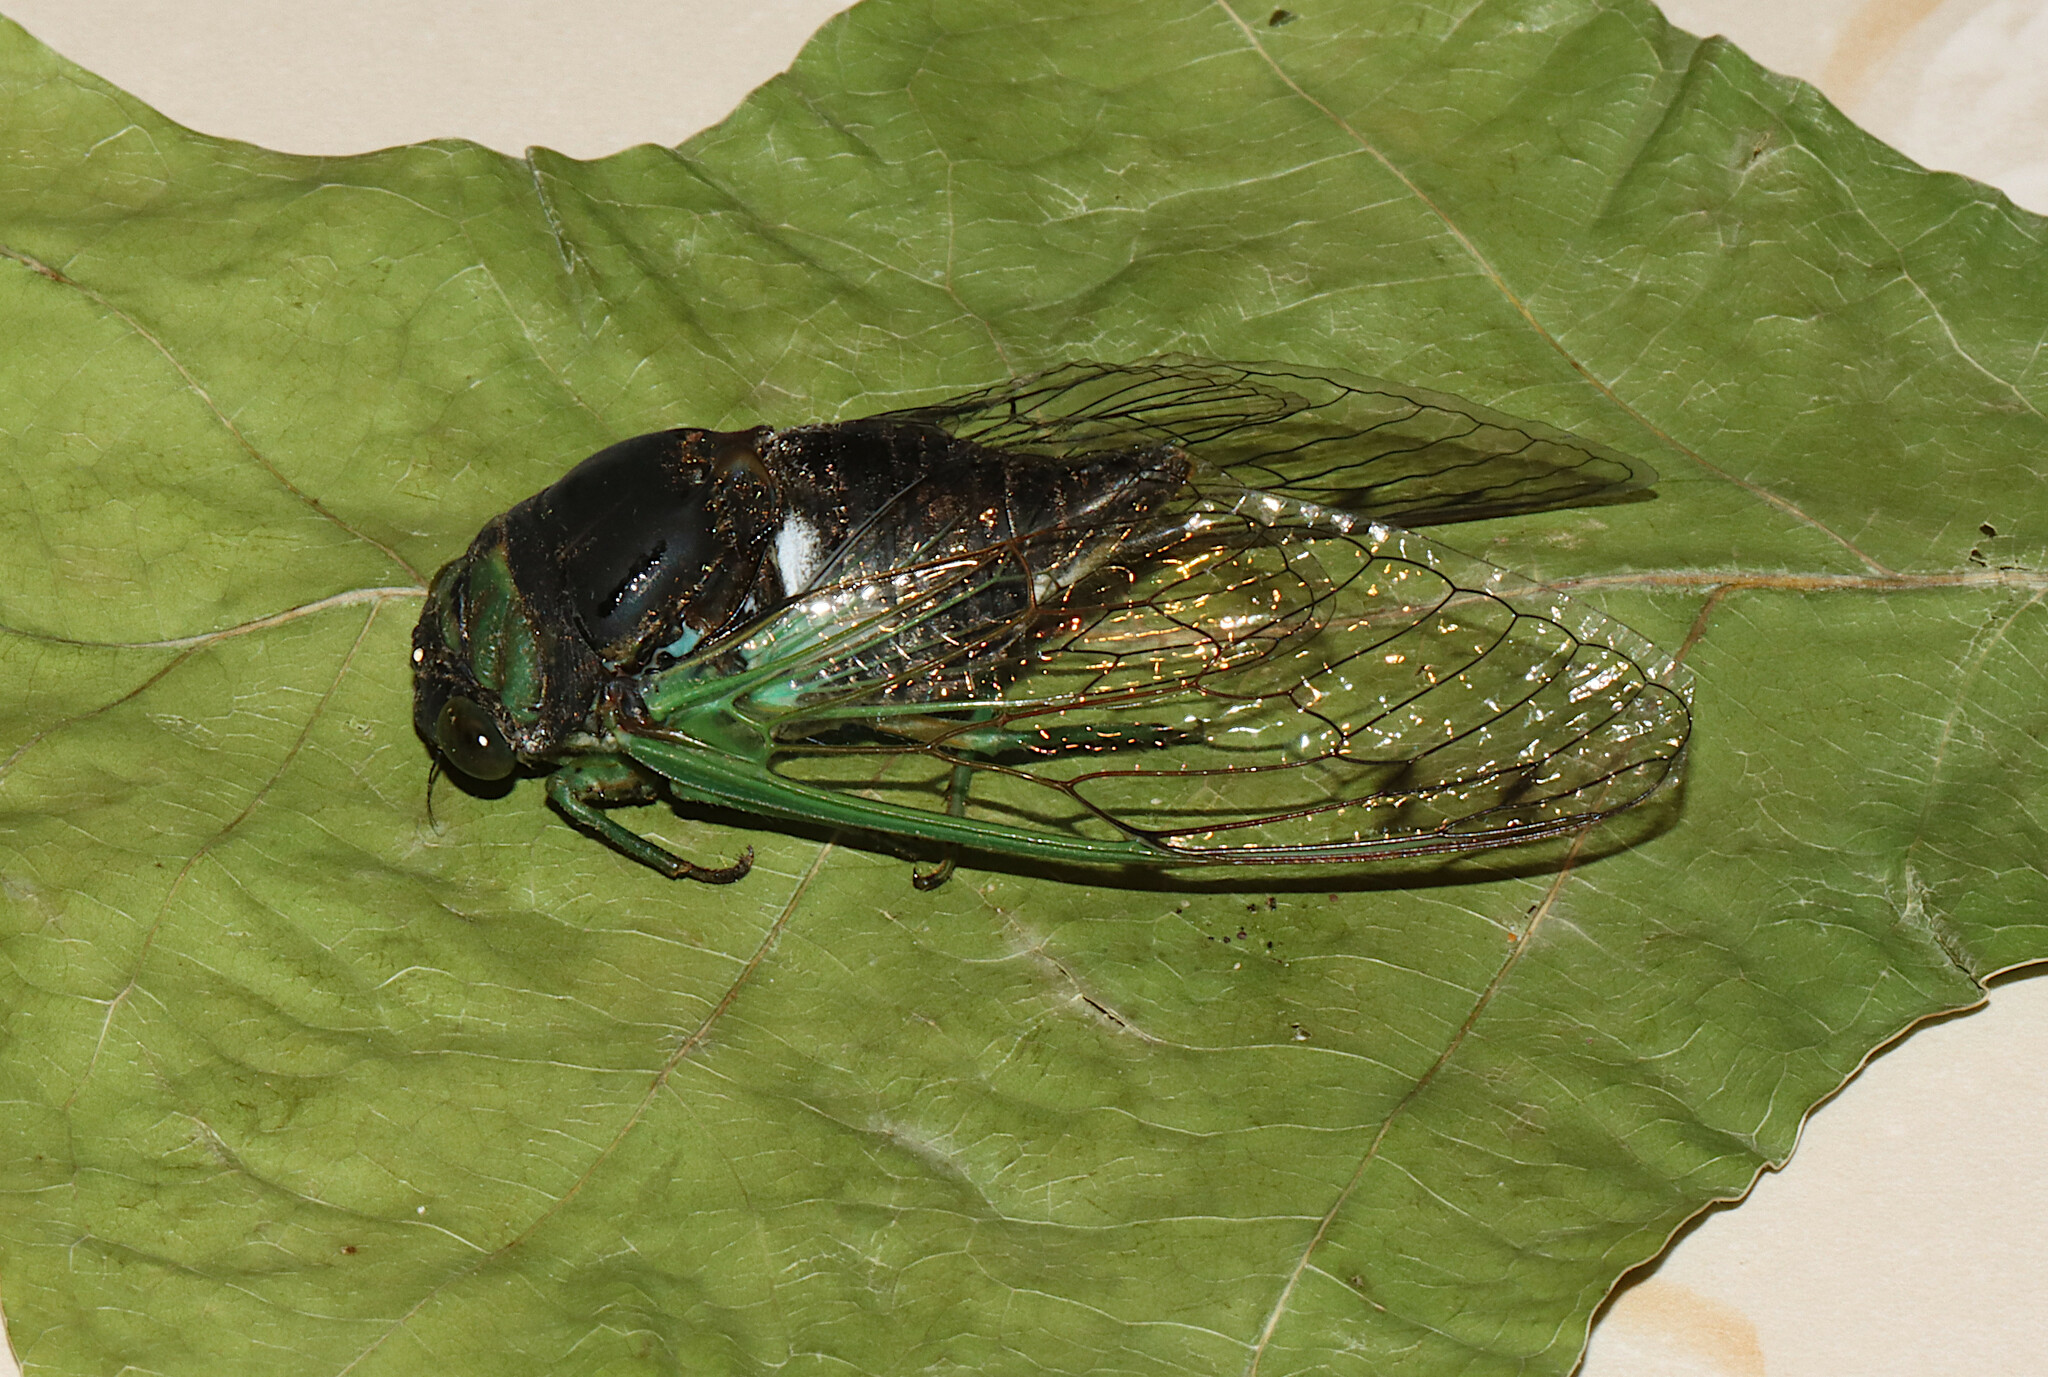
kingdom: Animalia
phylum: Arthropoda
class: Insecta
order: Hemiptera
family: Cicadidae
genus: Neotibicen
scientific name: Neotibicen tibicen
